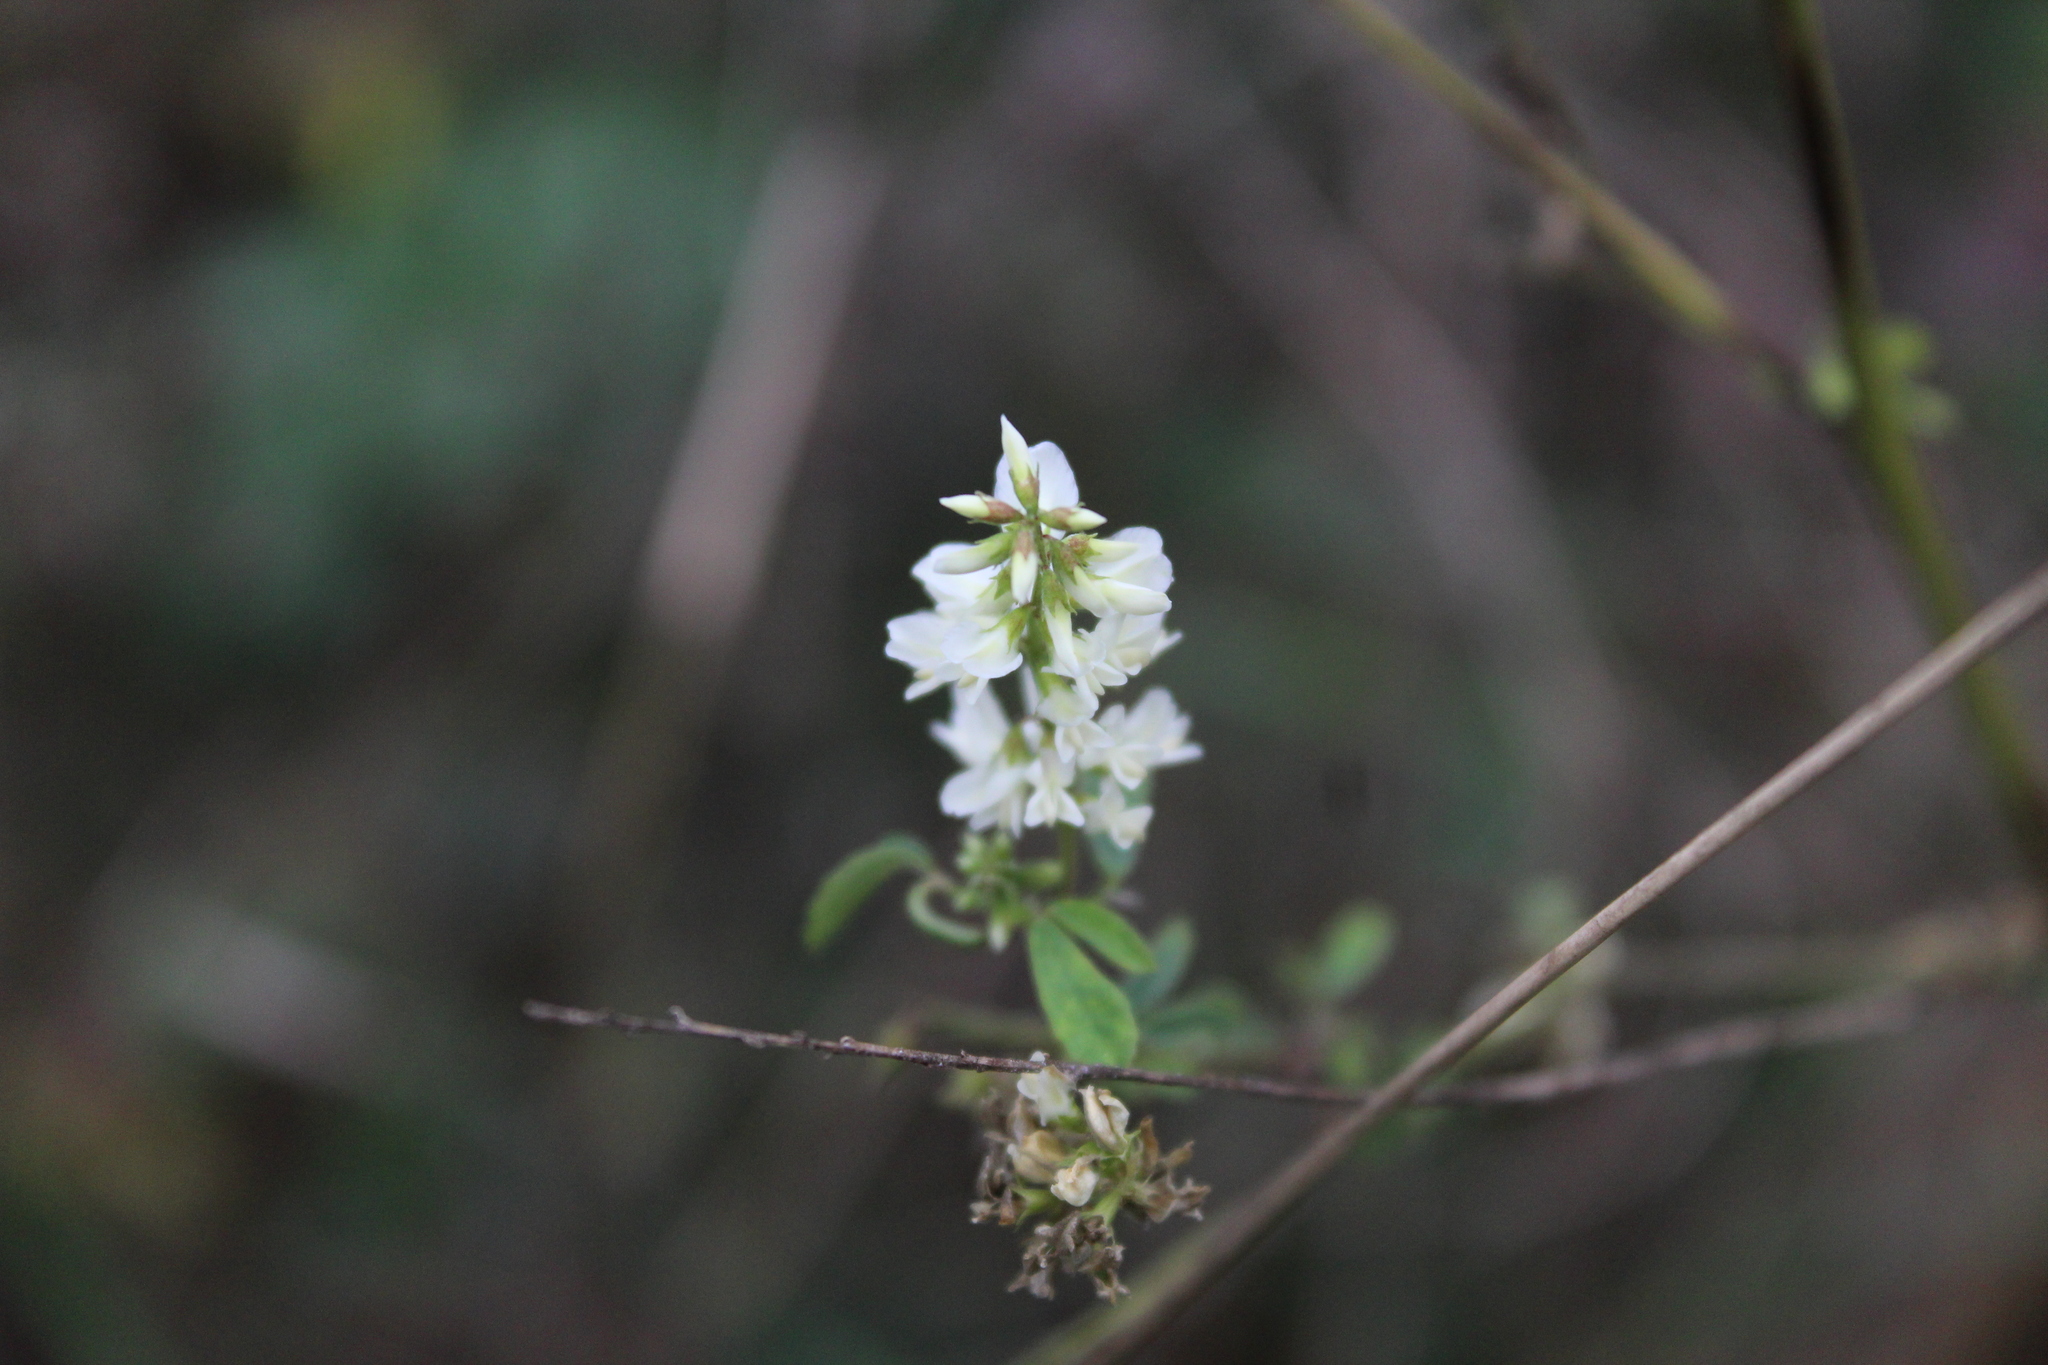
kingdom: Plantae
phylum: Tracheophyta
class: Magnoliopsida
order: Fabales
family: Fabaceae
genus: Melilotus
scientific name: Melilotus albus
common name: White melilot
